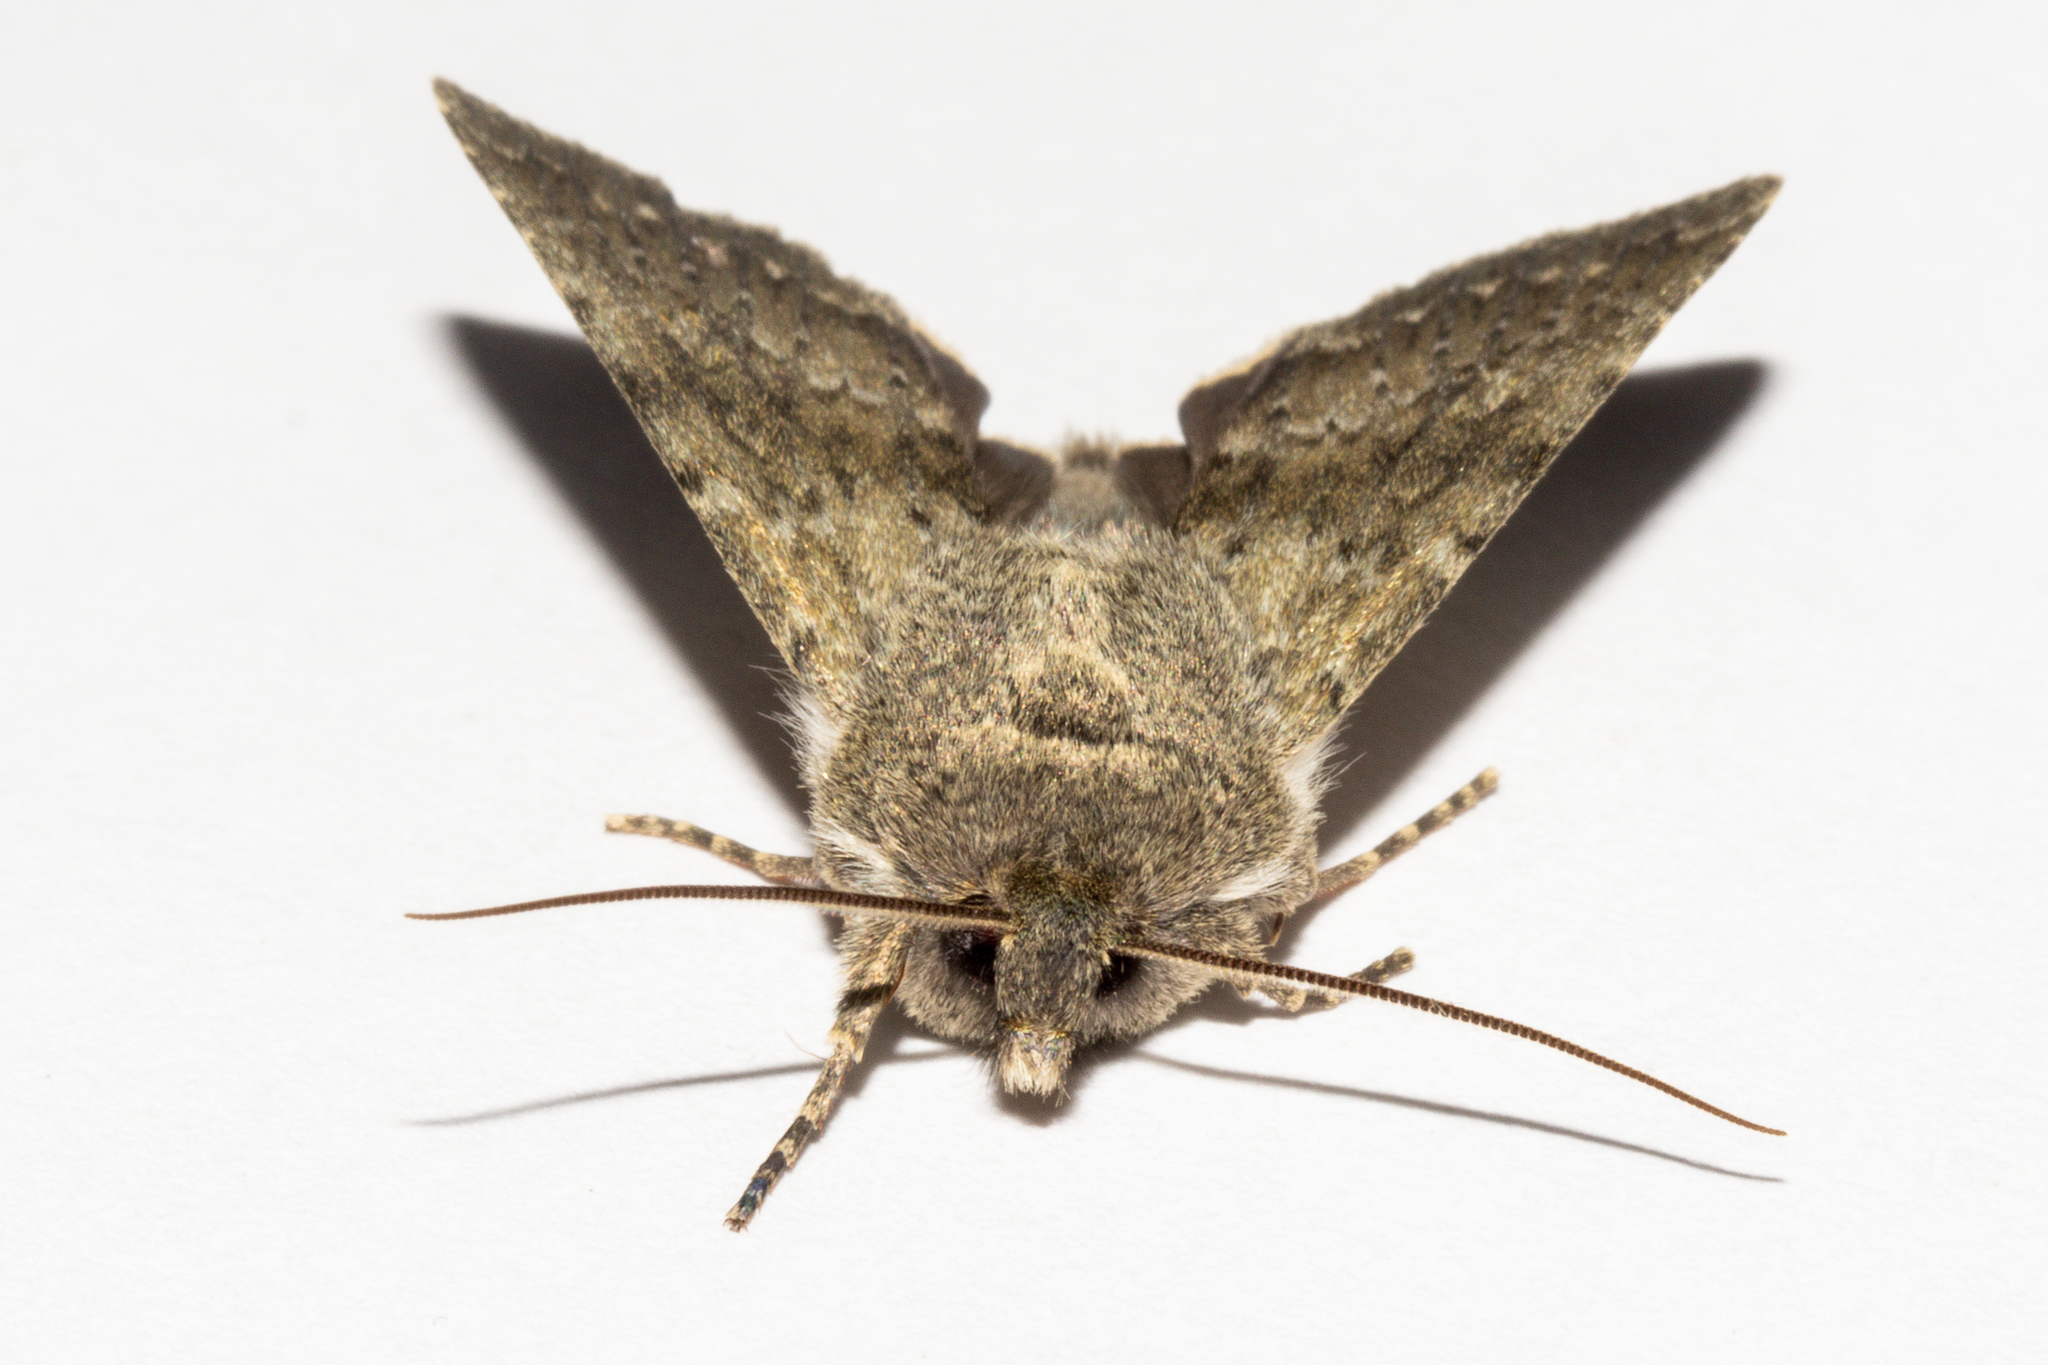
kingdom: Animalia
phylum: Arthropoda
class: Insecta
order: Lepidoptera
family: Noctuidae
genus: Ichneutica
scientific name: Ichneutica moderata
